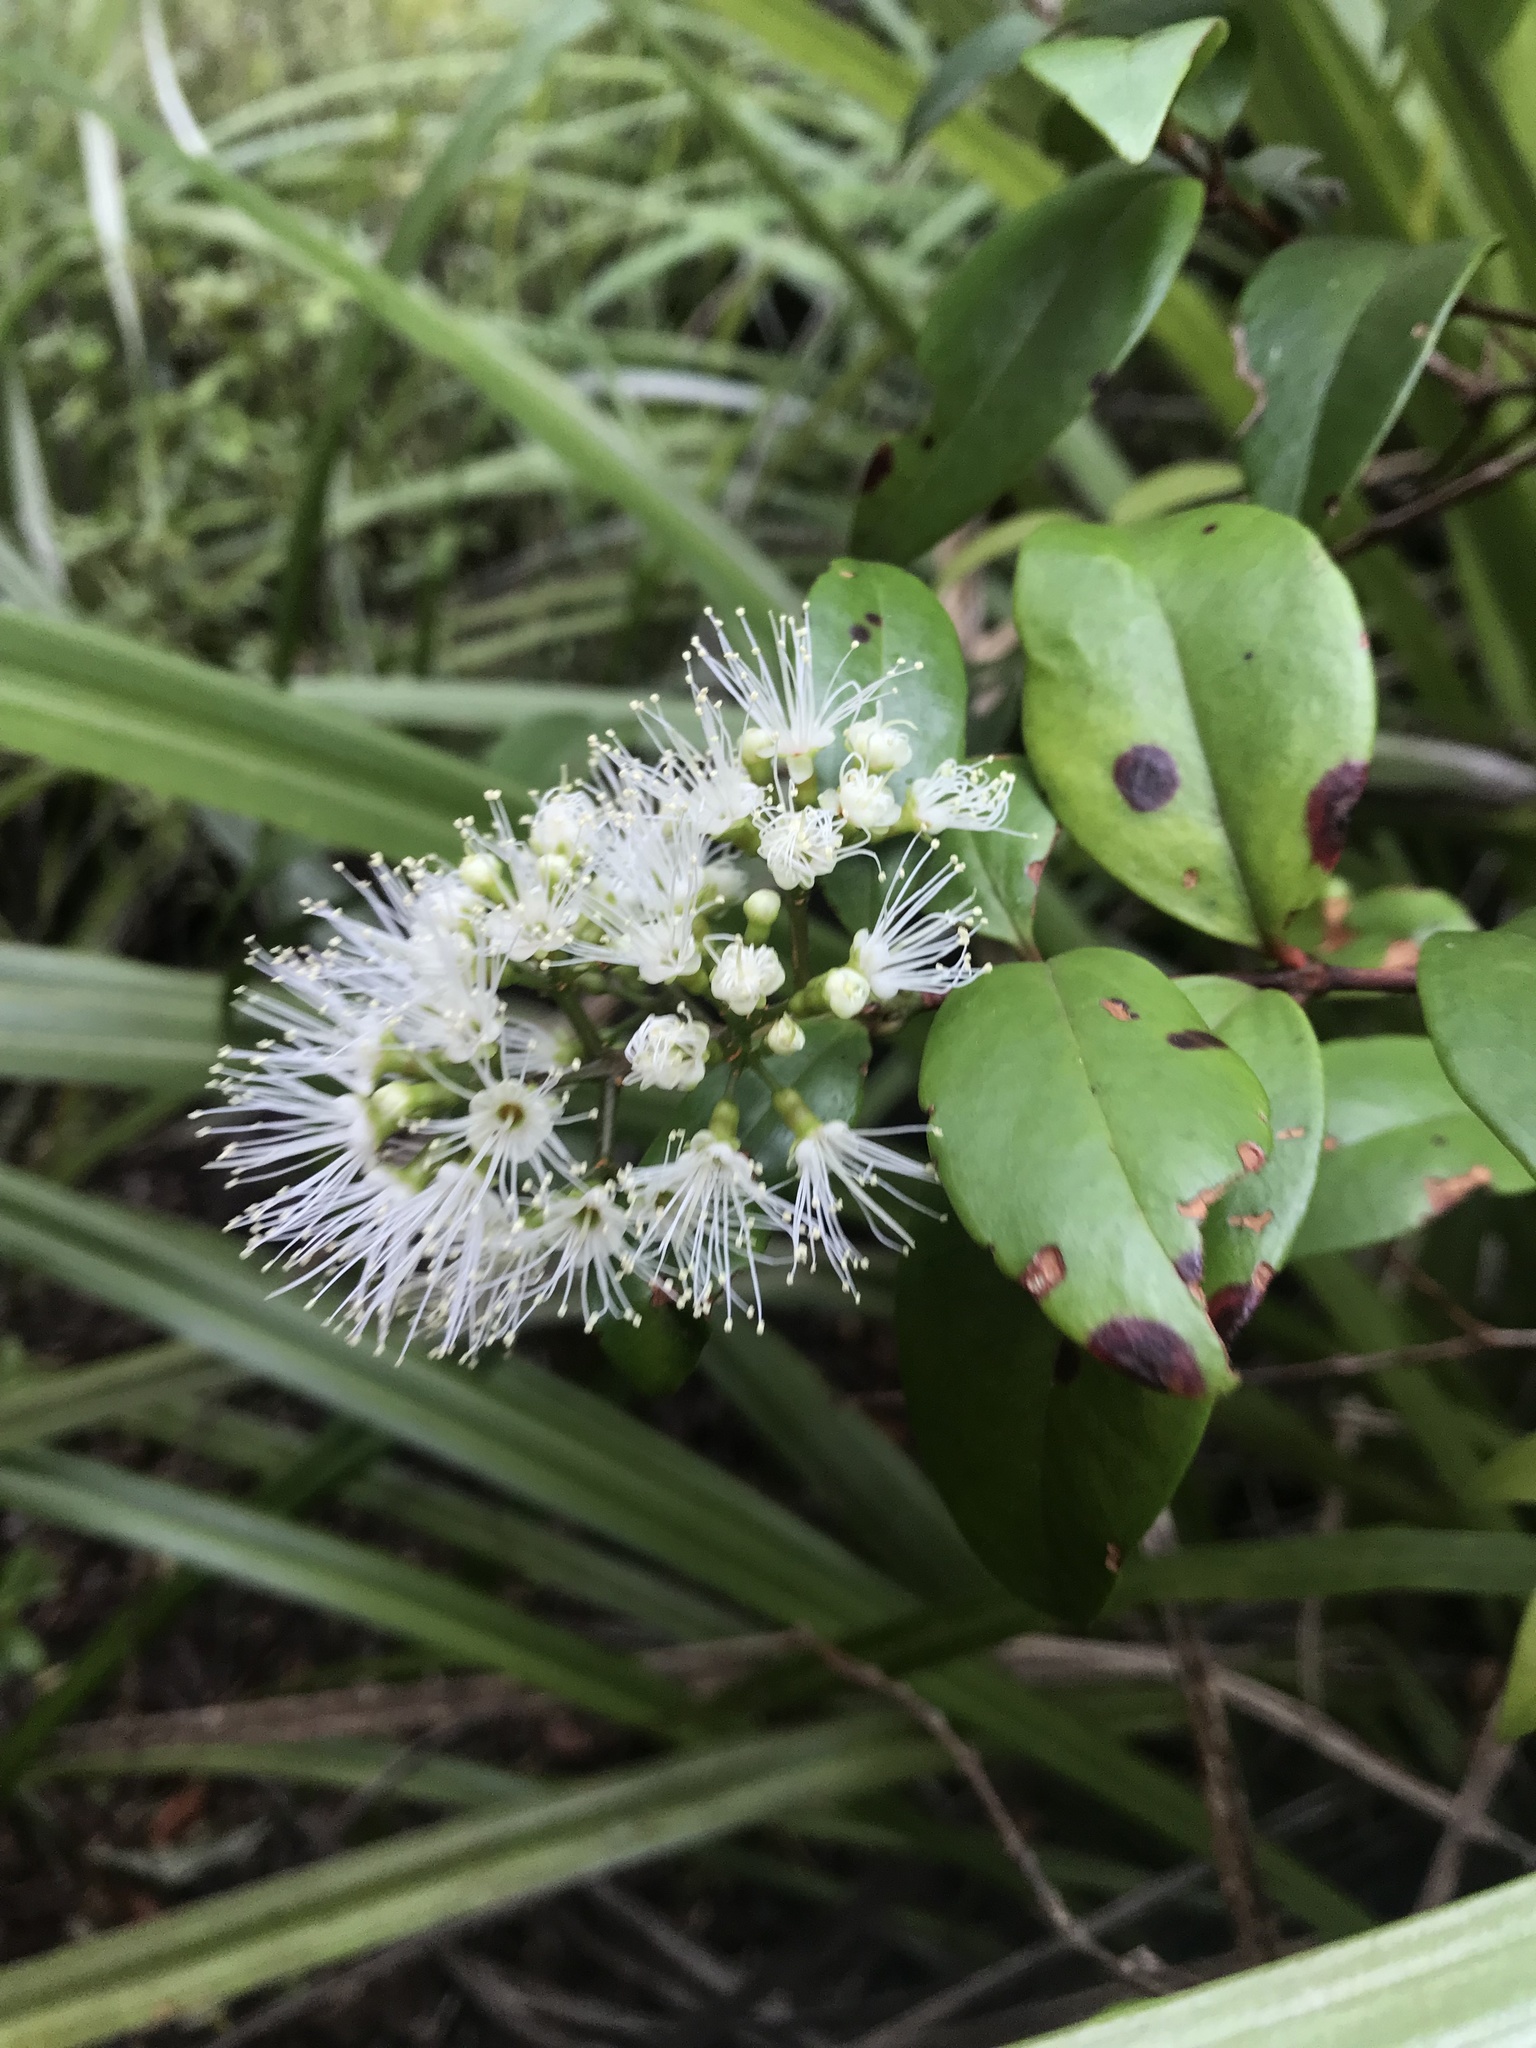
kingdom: Plantae
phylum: Tracheophyta
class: Magnoliopsida
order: Myrtales
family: Myrtaceae
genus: Metrosideros
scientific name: Metrosideros albiflora
